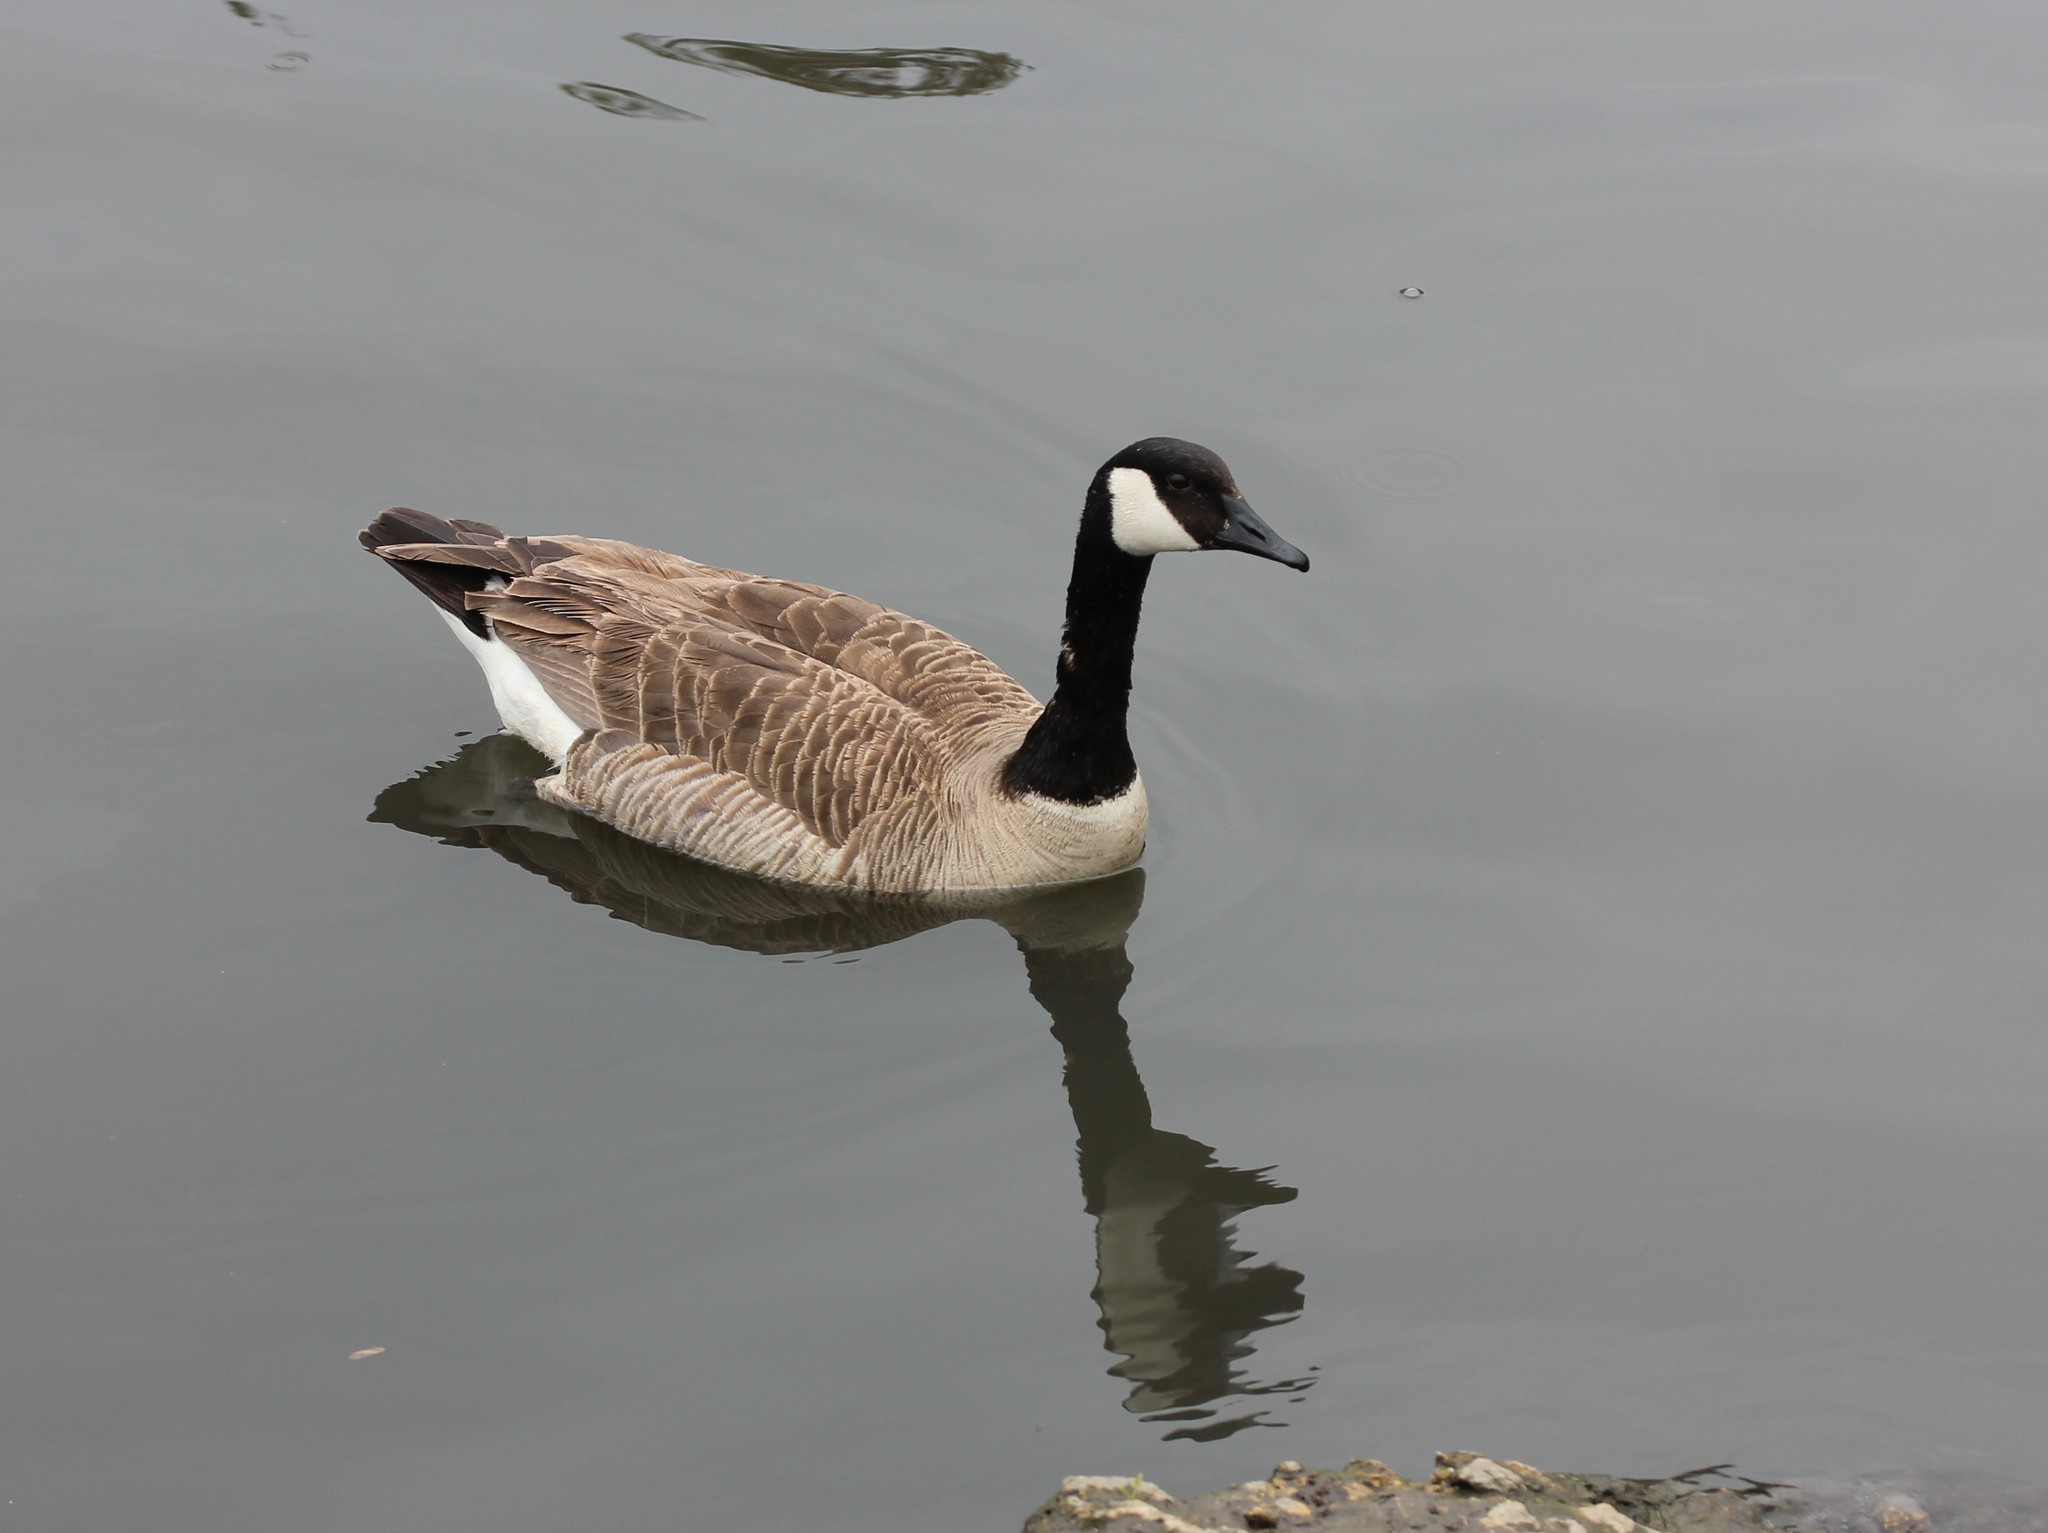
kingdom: Animalia
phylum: Chordata
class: Aves
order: Anseriformes
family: Anatidae
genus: Branta
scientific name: Branta canadensis
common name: Canada goose
